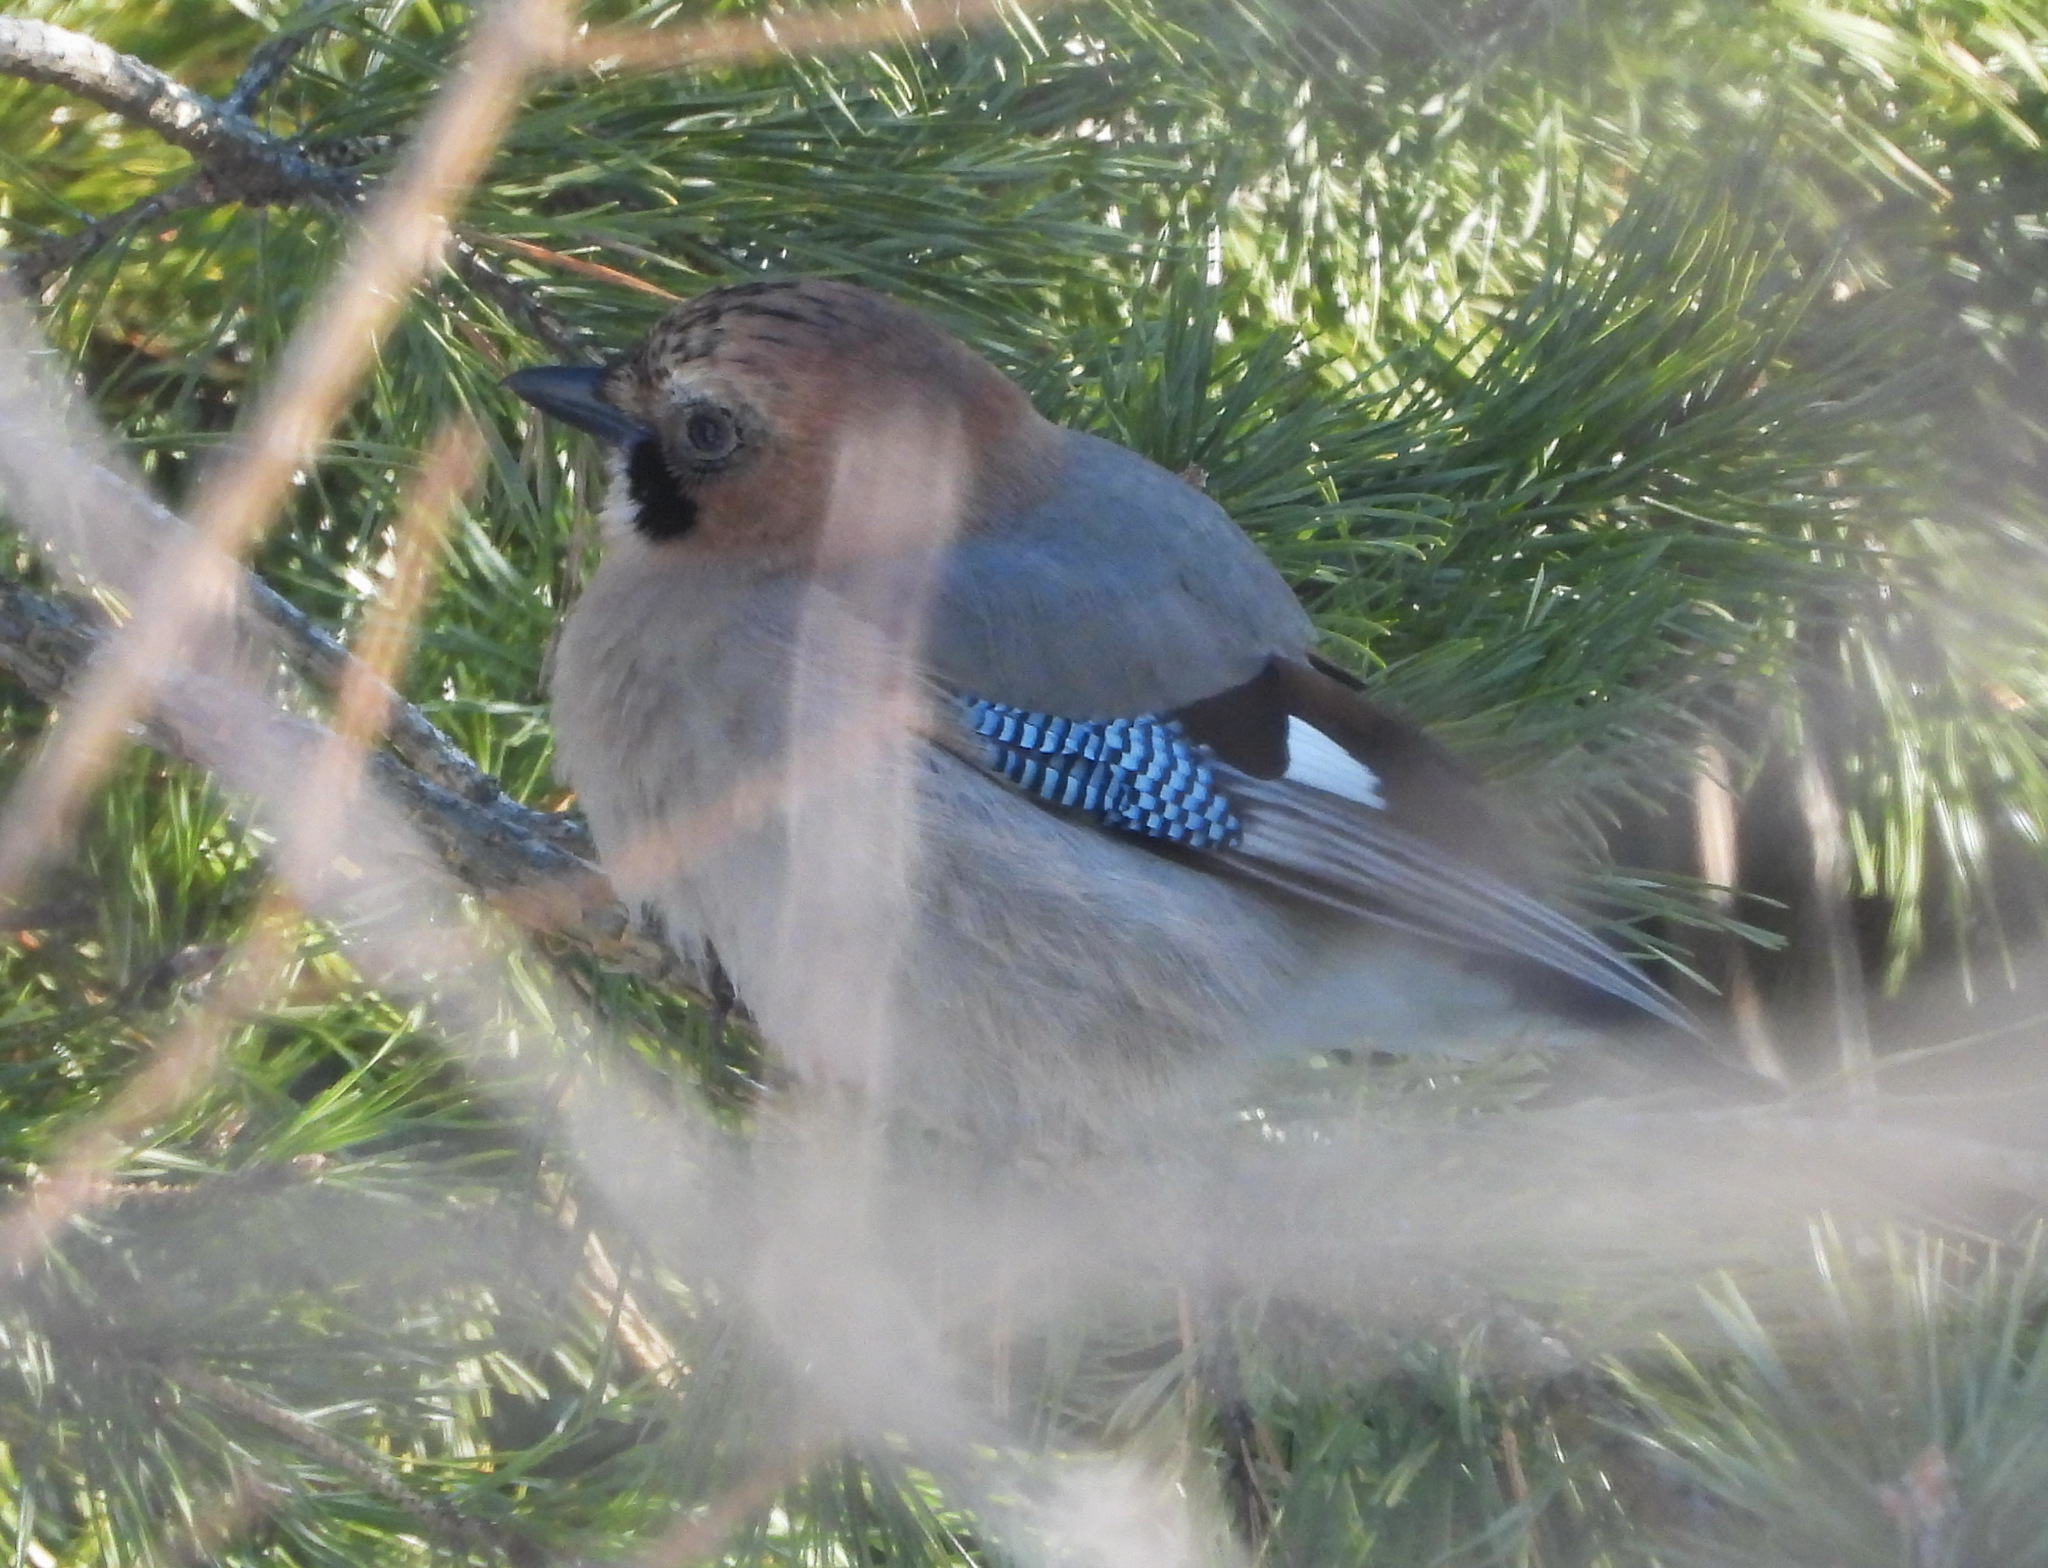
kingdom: Animalia
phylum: Chordata
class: Aves
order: Passeriformes
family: Corvidae
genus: Garrulus
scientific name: Garrulus glandarius
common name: Eurasian jay
